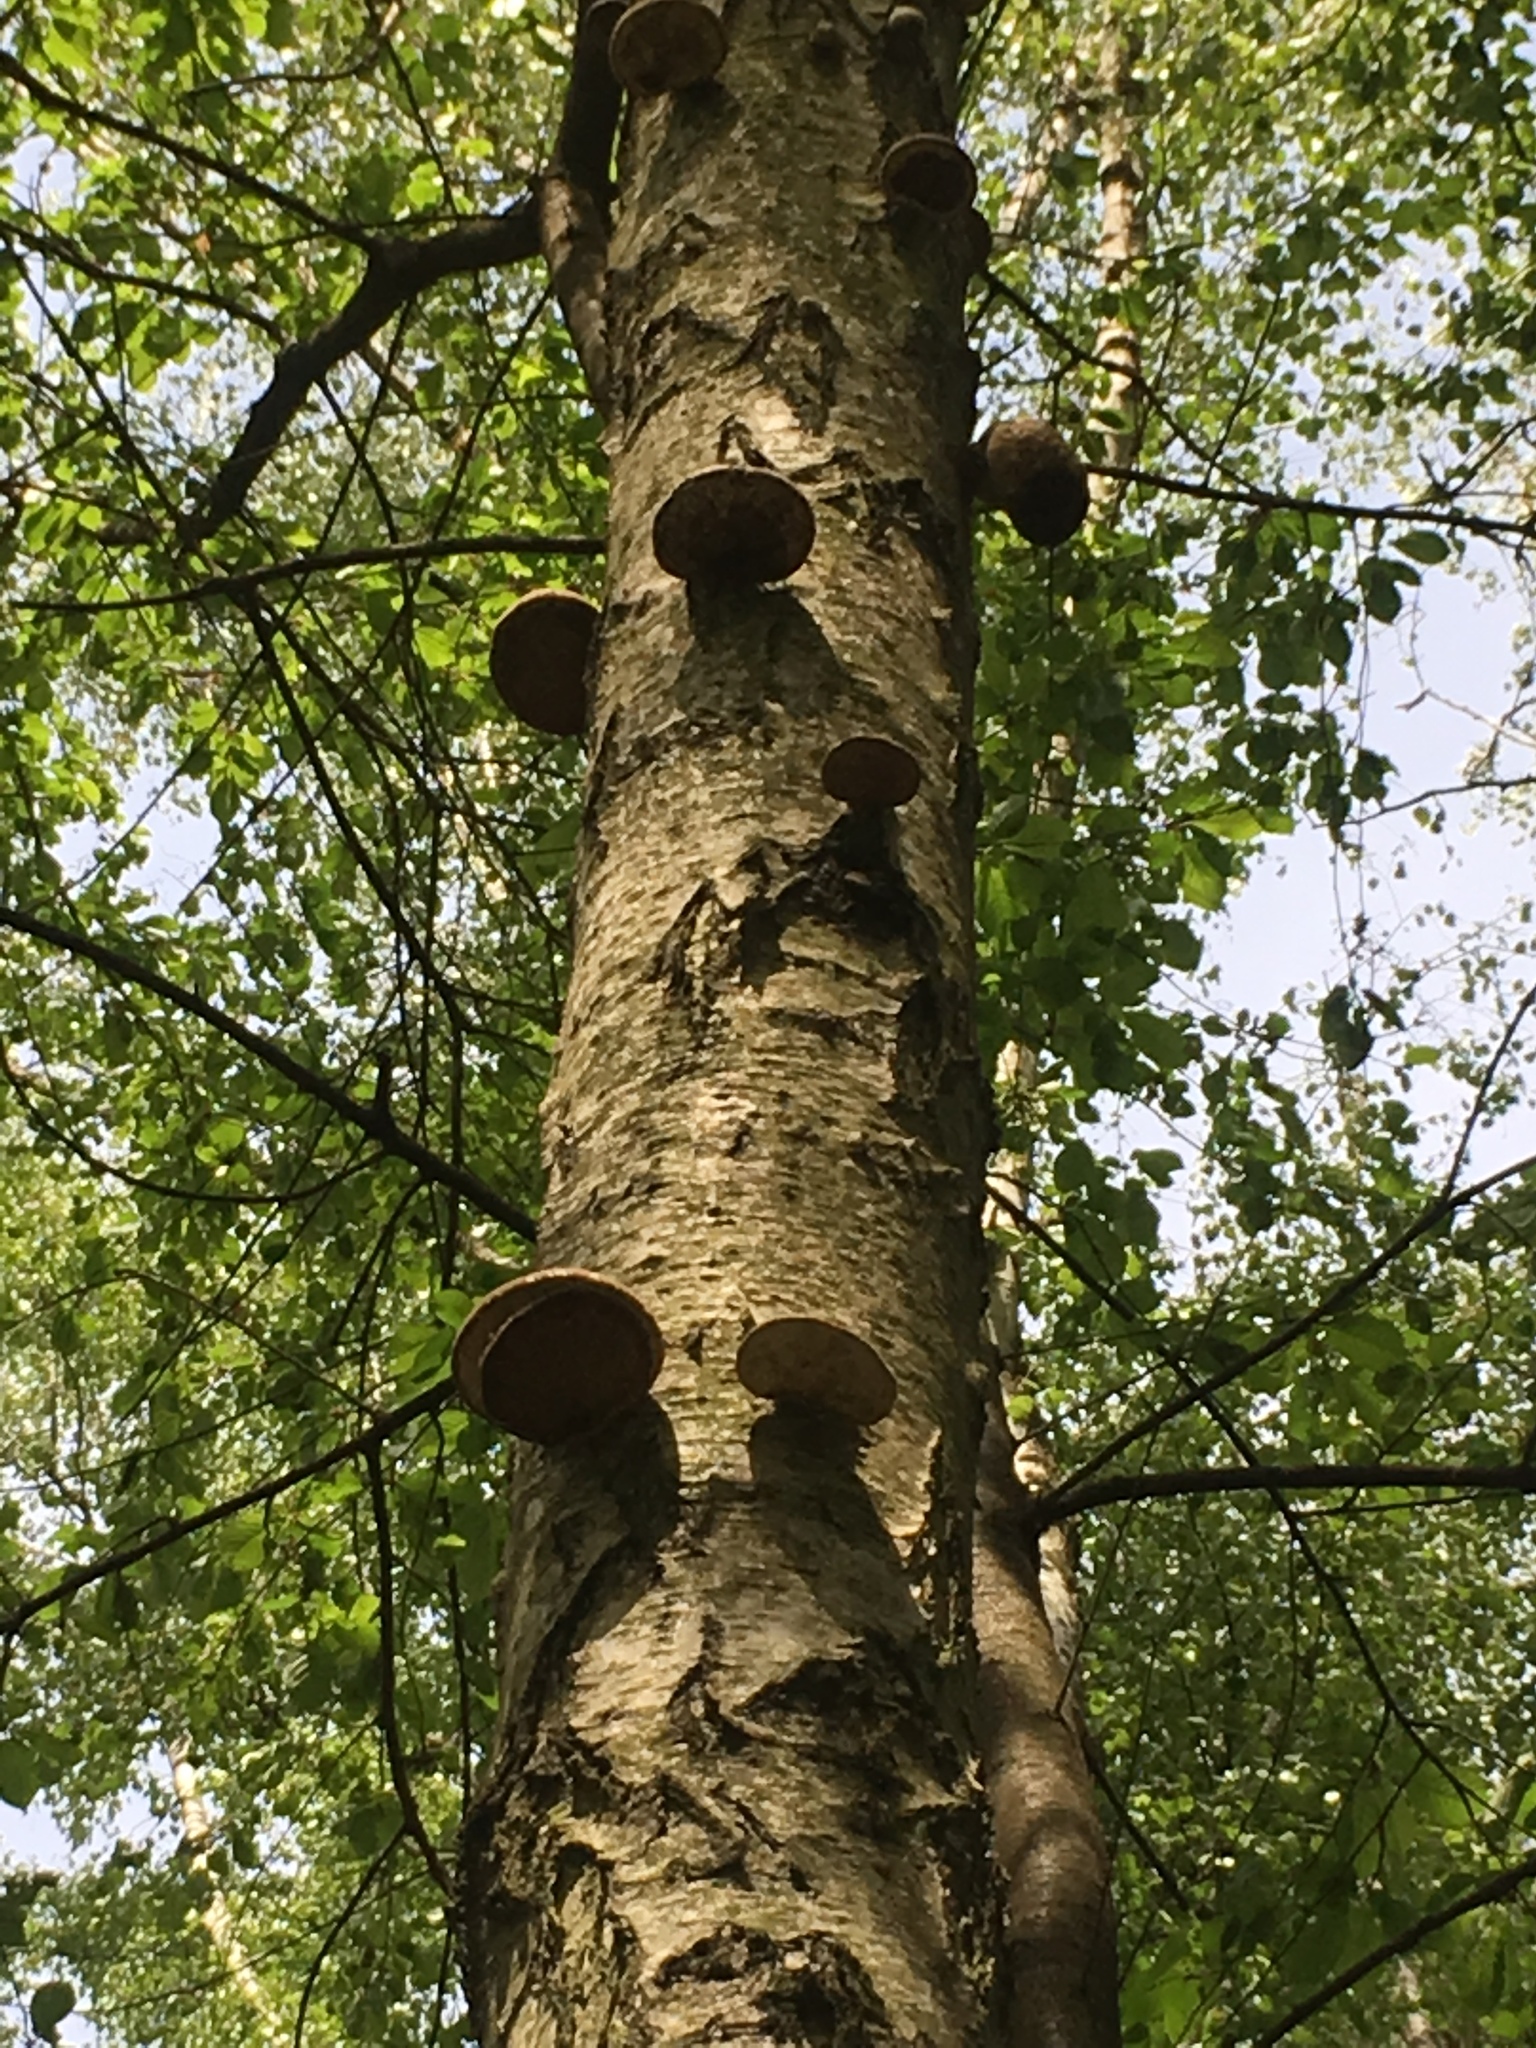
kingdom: Fungi
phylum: Basidiomycota
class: Agaricomycetes
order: Polyporales
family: Fomitopsidaceae
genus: Fomitopsis
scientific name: Fomitopsis betulina
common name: Birch polypore
